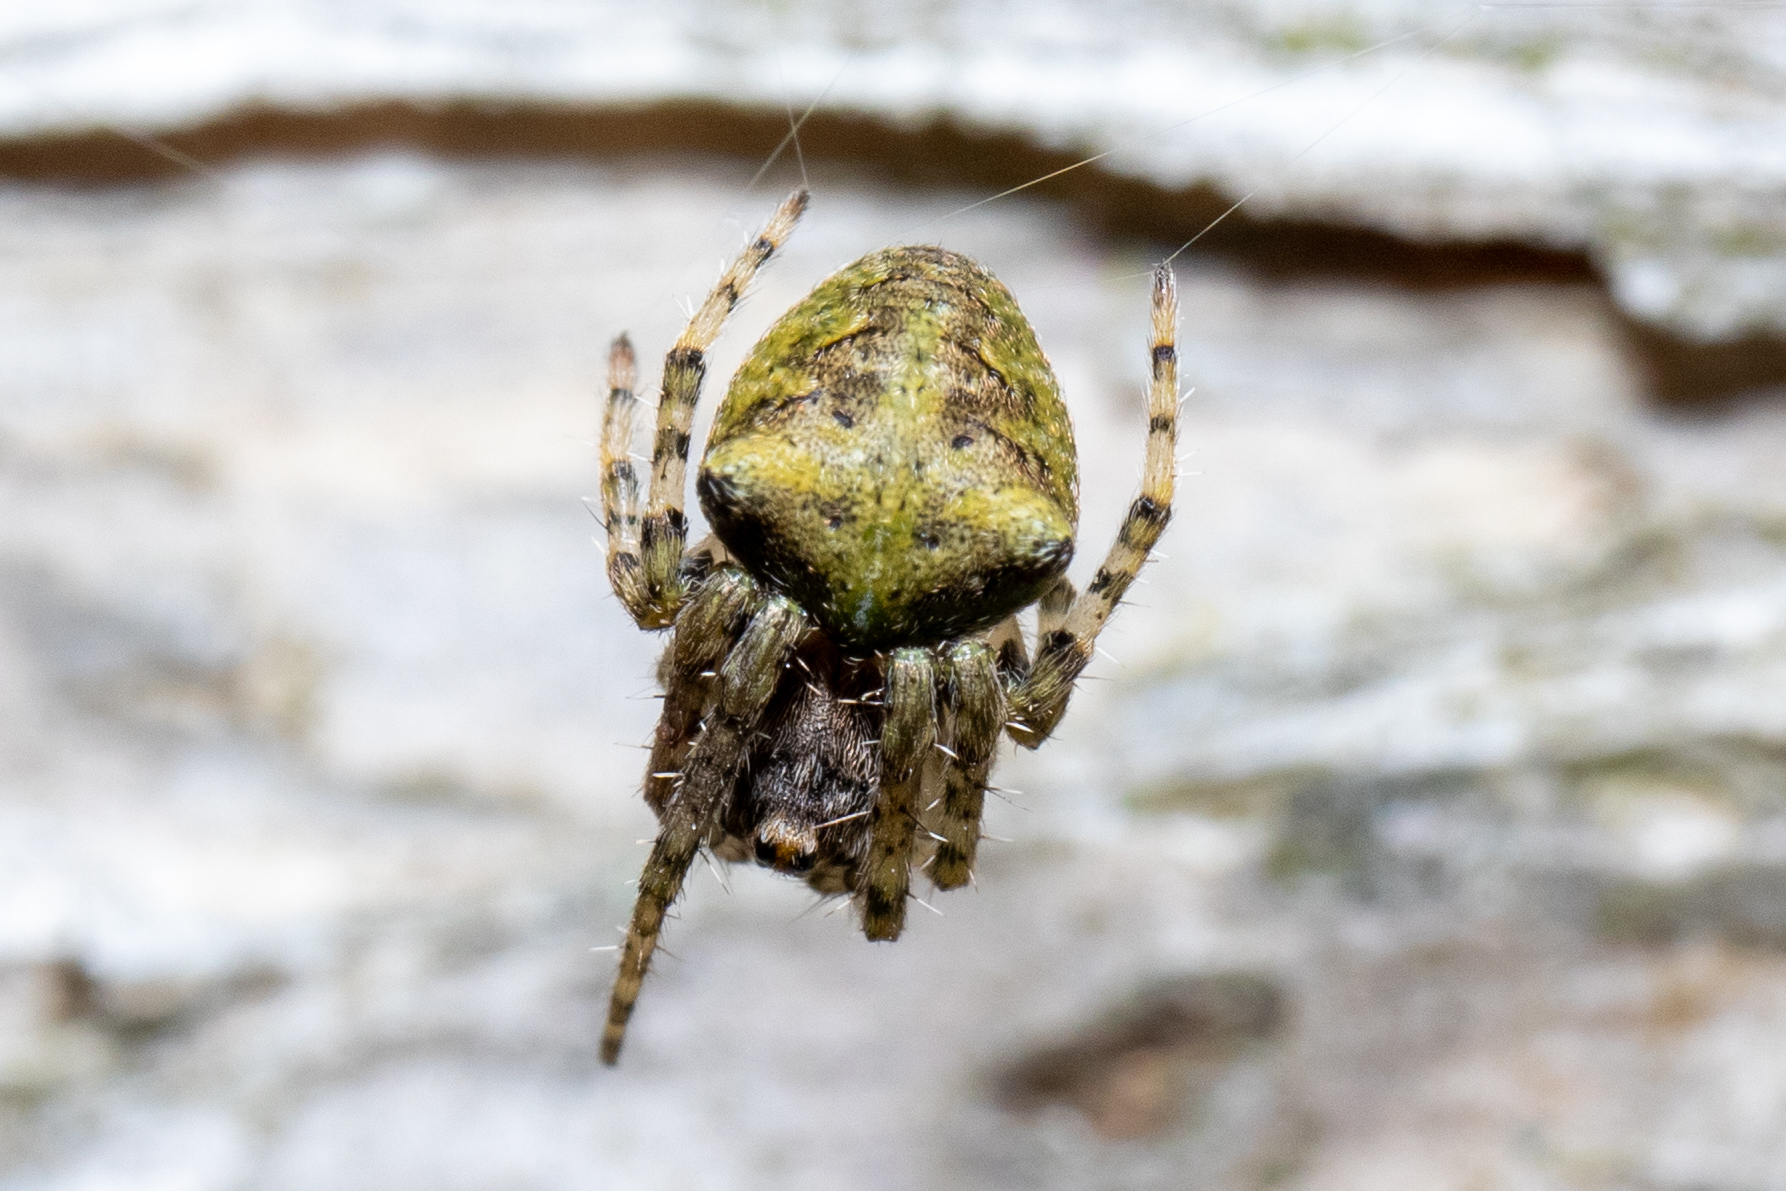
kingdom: Animalia
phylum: Arthropoda
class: Arachnida
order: Araneae
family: Araneidae
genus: Gibbaranea
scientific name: Gibbaranea gibbosa
